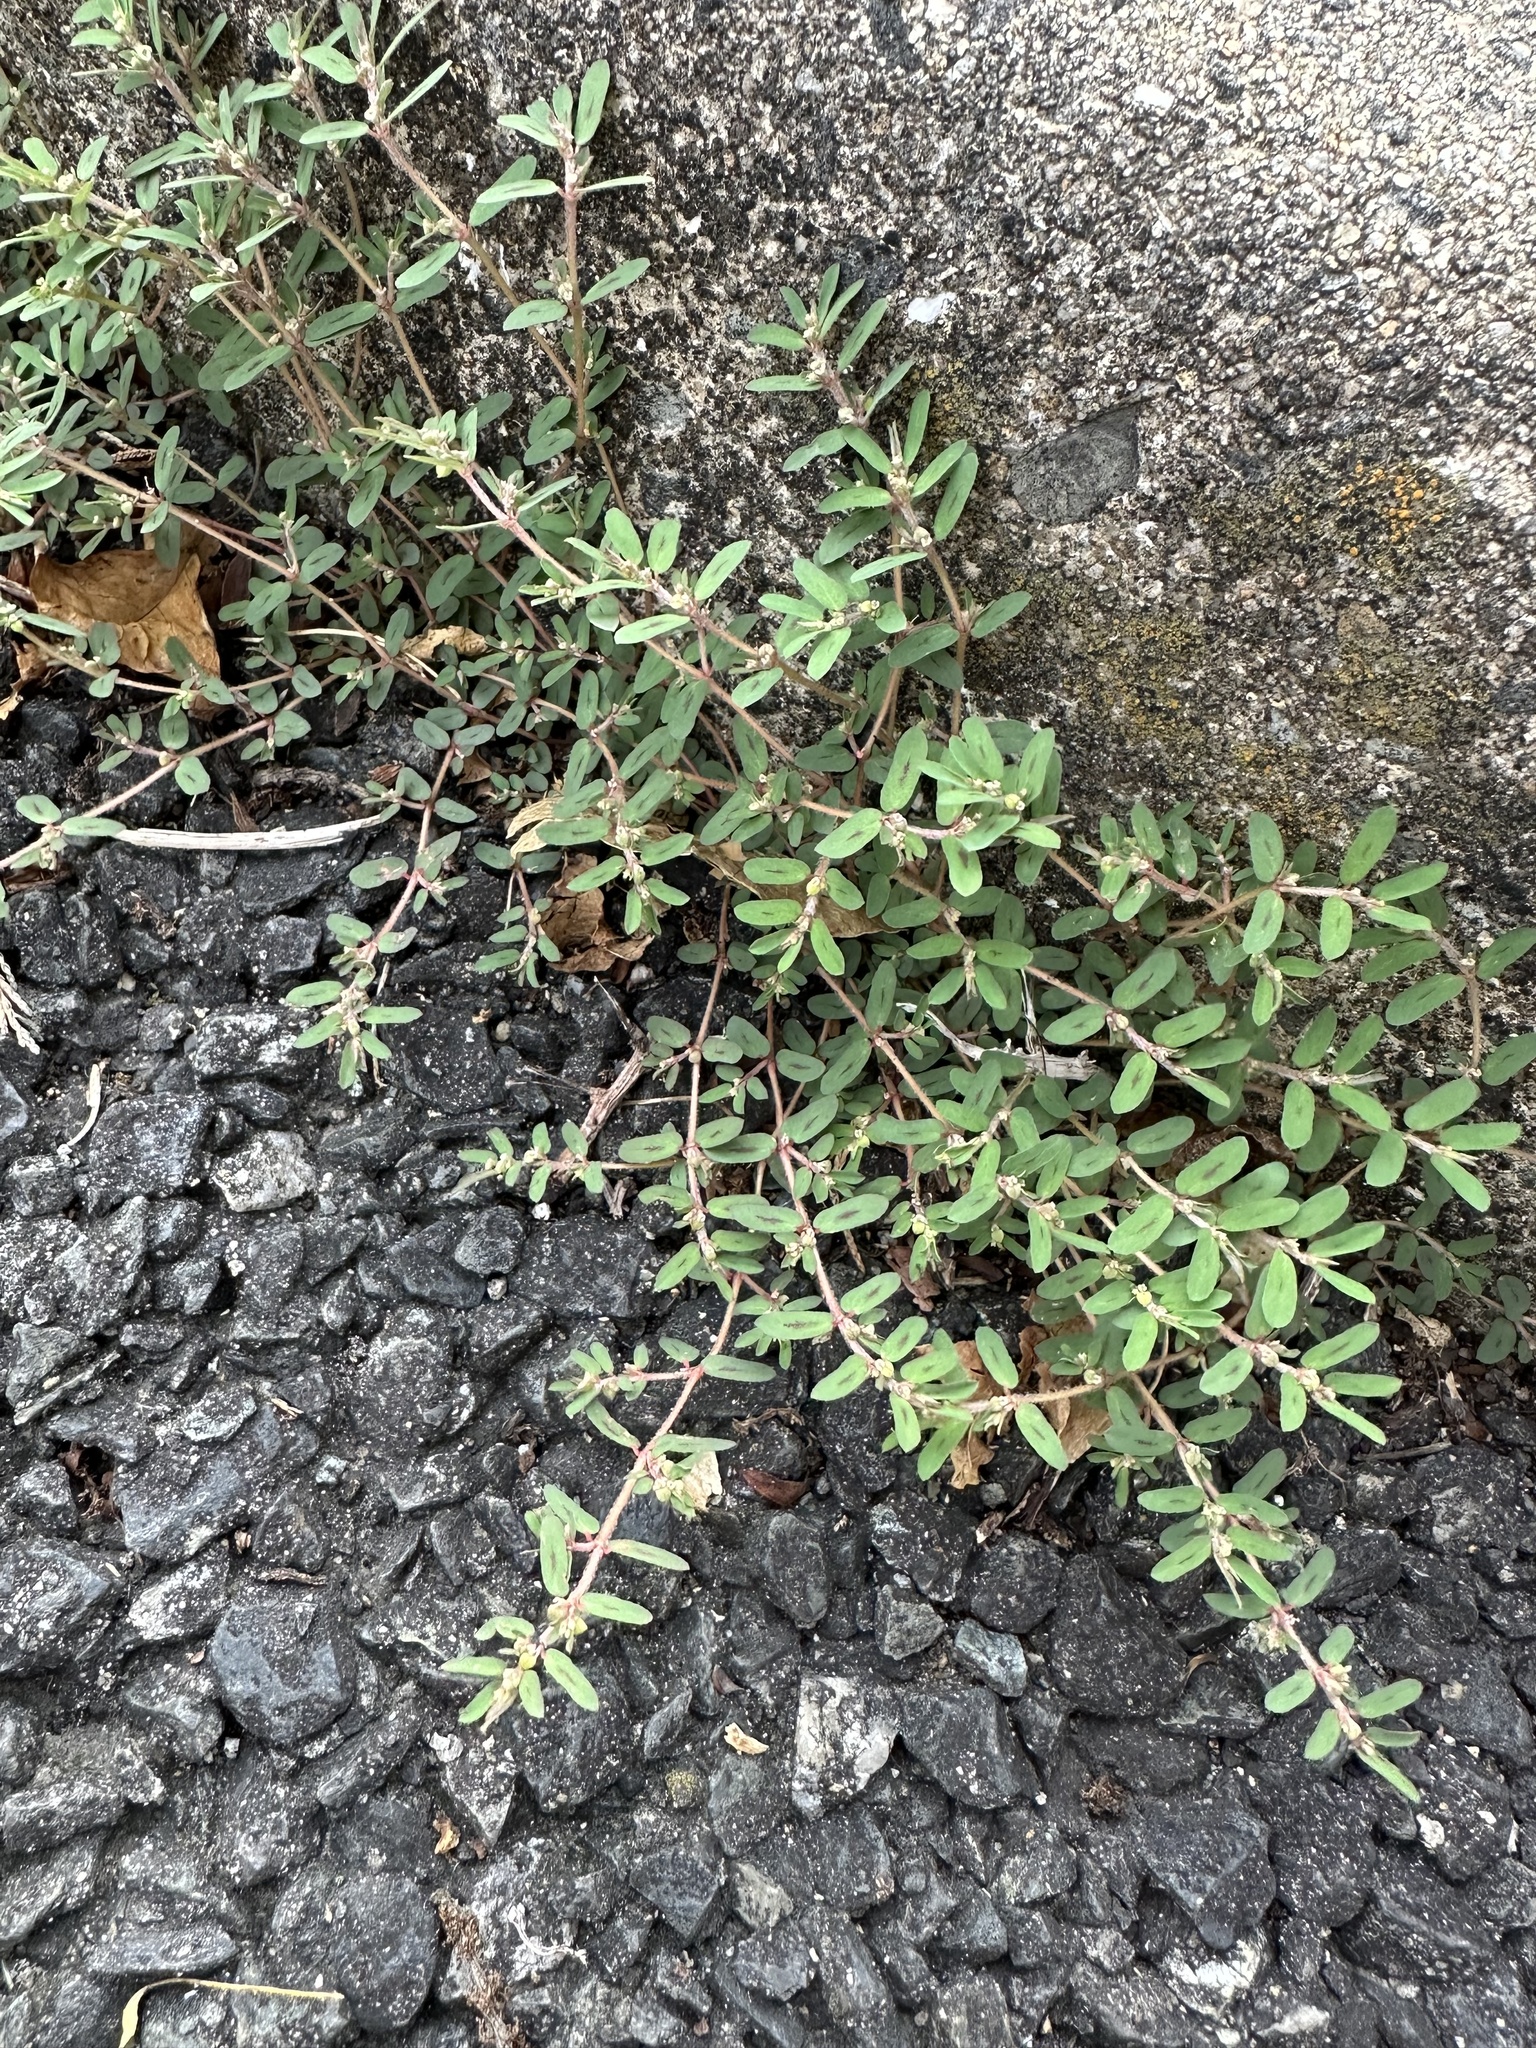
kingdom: Plantae
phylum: Tracheophyta
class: Magnoliopsida
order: Malpighiales
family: Euphorbiaceae
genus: Euphorbia
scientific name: Euphorbia maculata
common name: Spotted spurge
